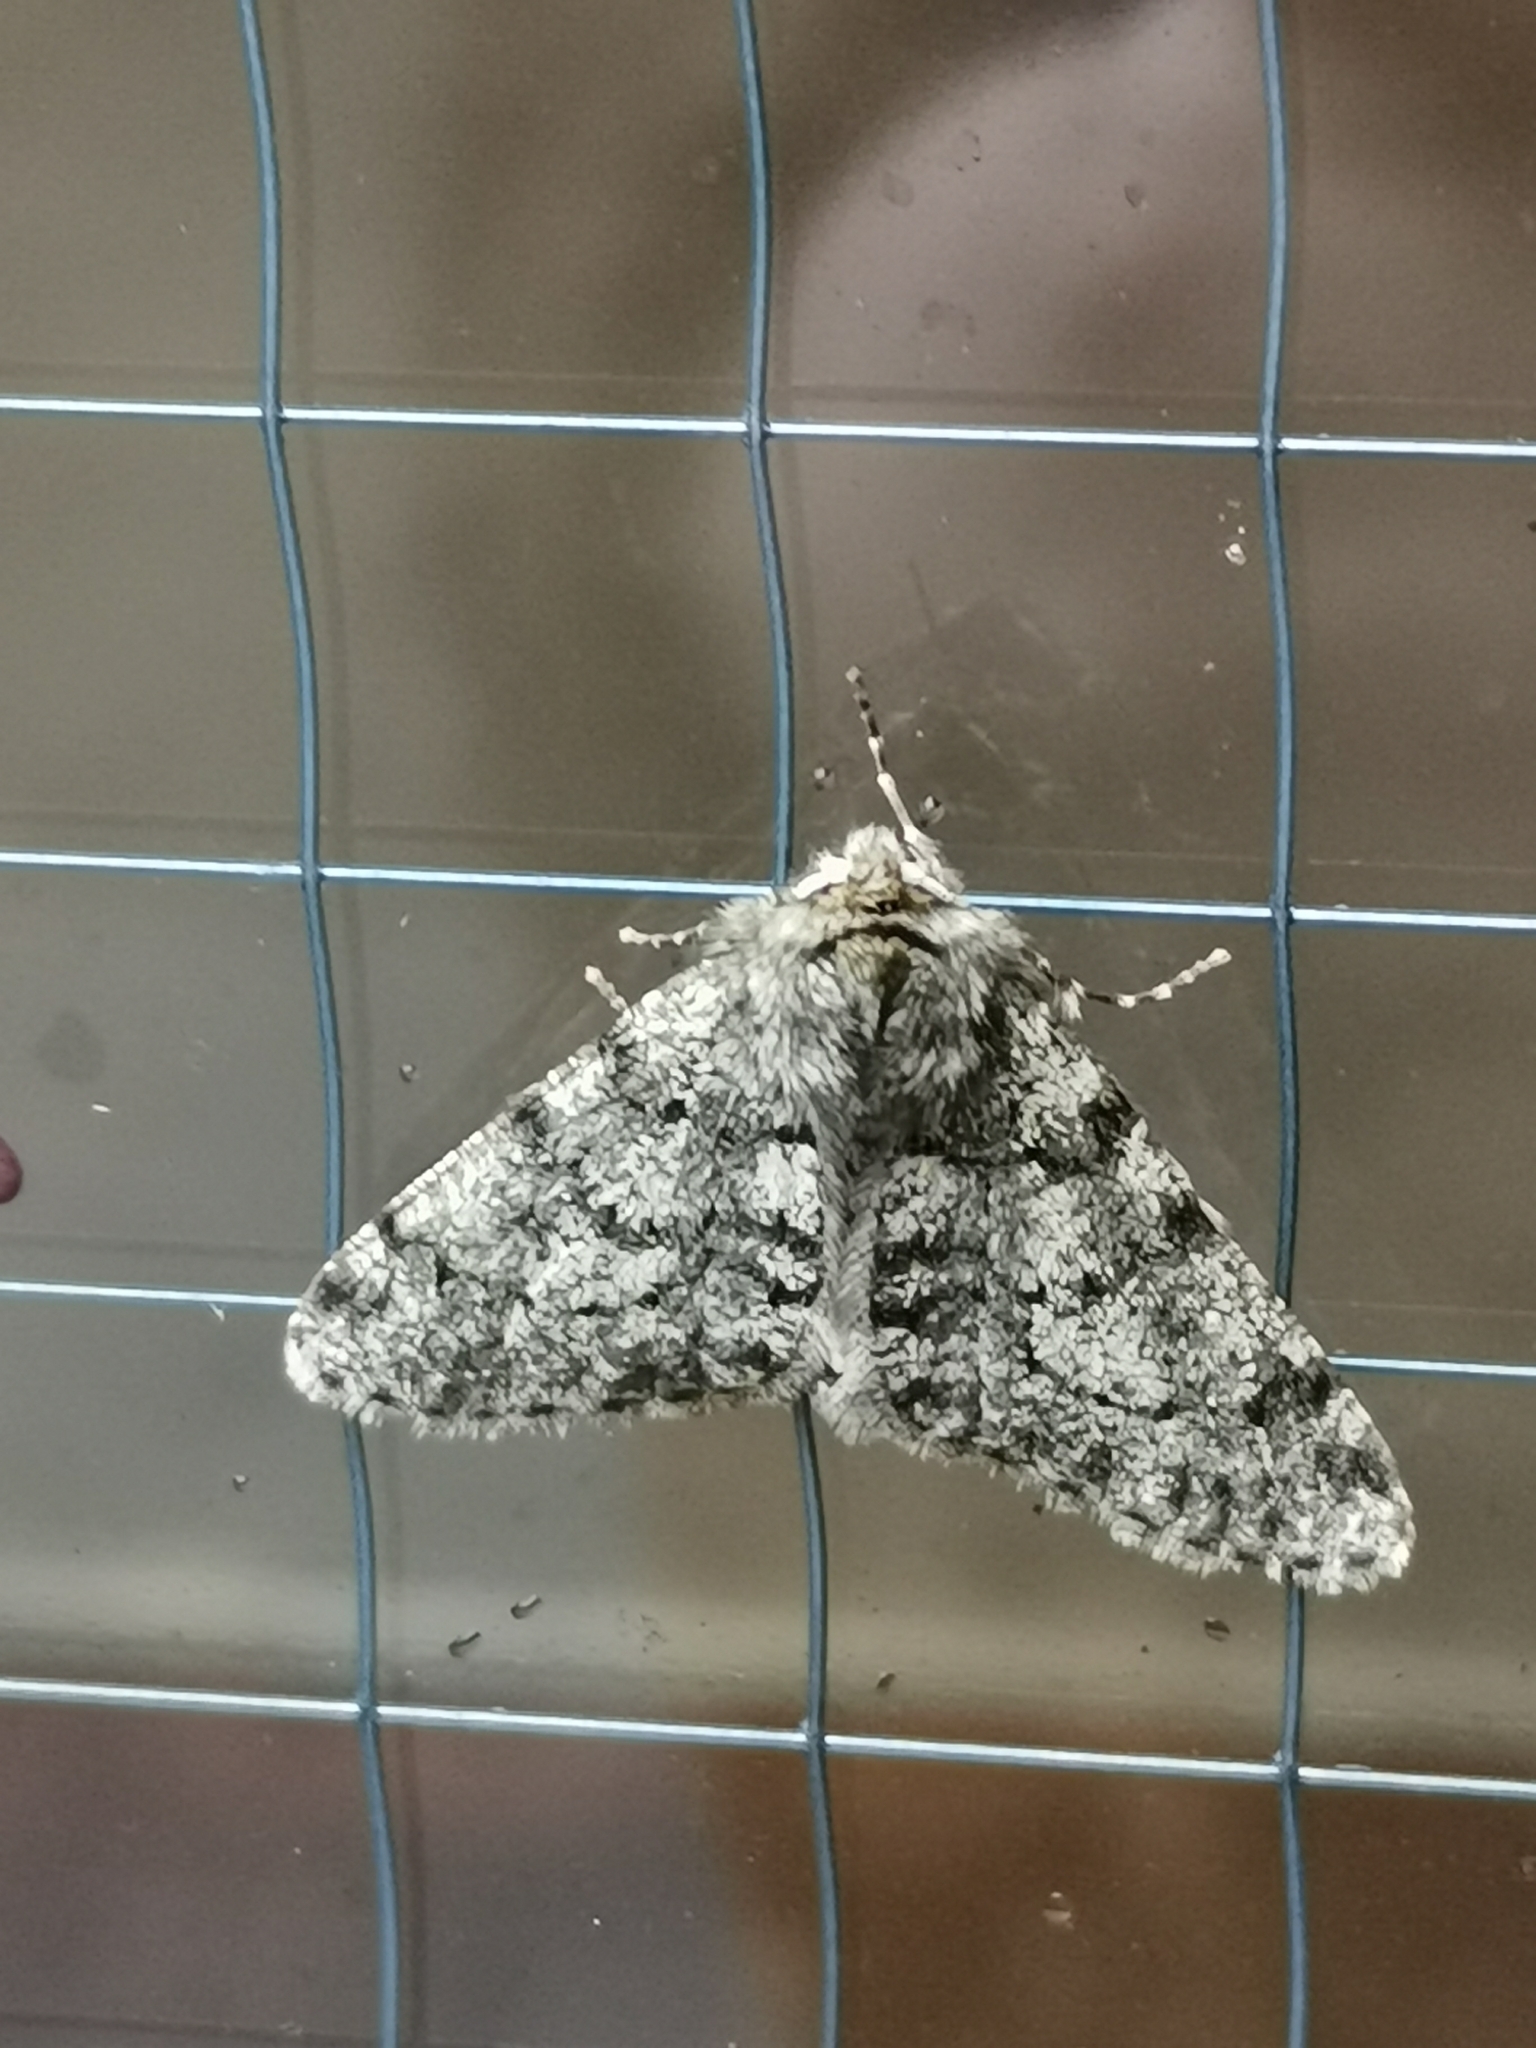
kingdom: Animalia
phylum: Arthropoda
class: Insecta
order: Lepidoptera
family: Geometridae
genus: Phigalia
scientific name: Phigalia pilosaria
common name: Pale brindled beauty
